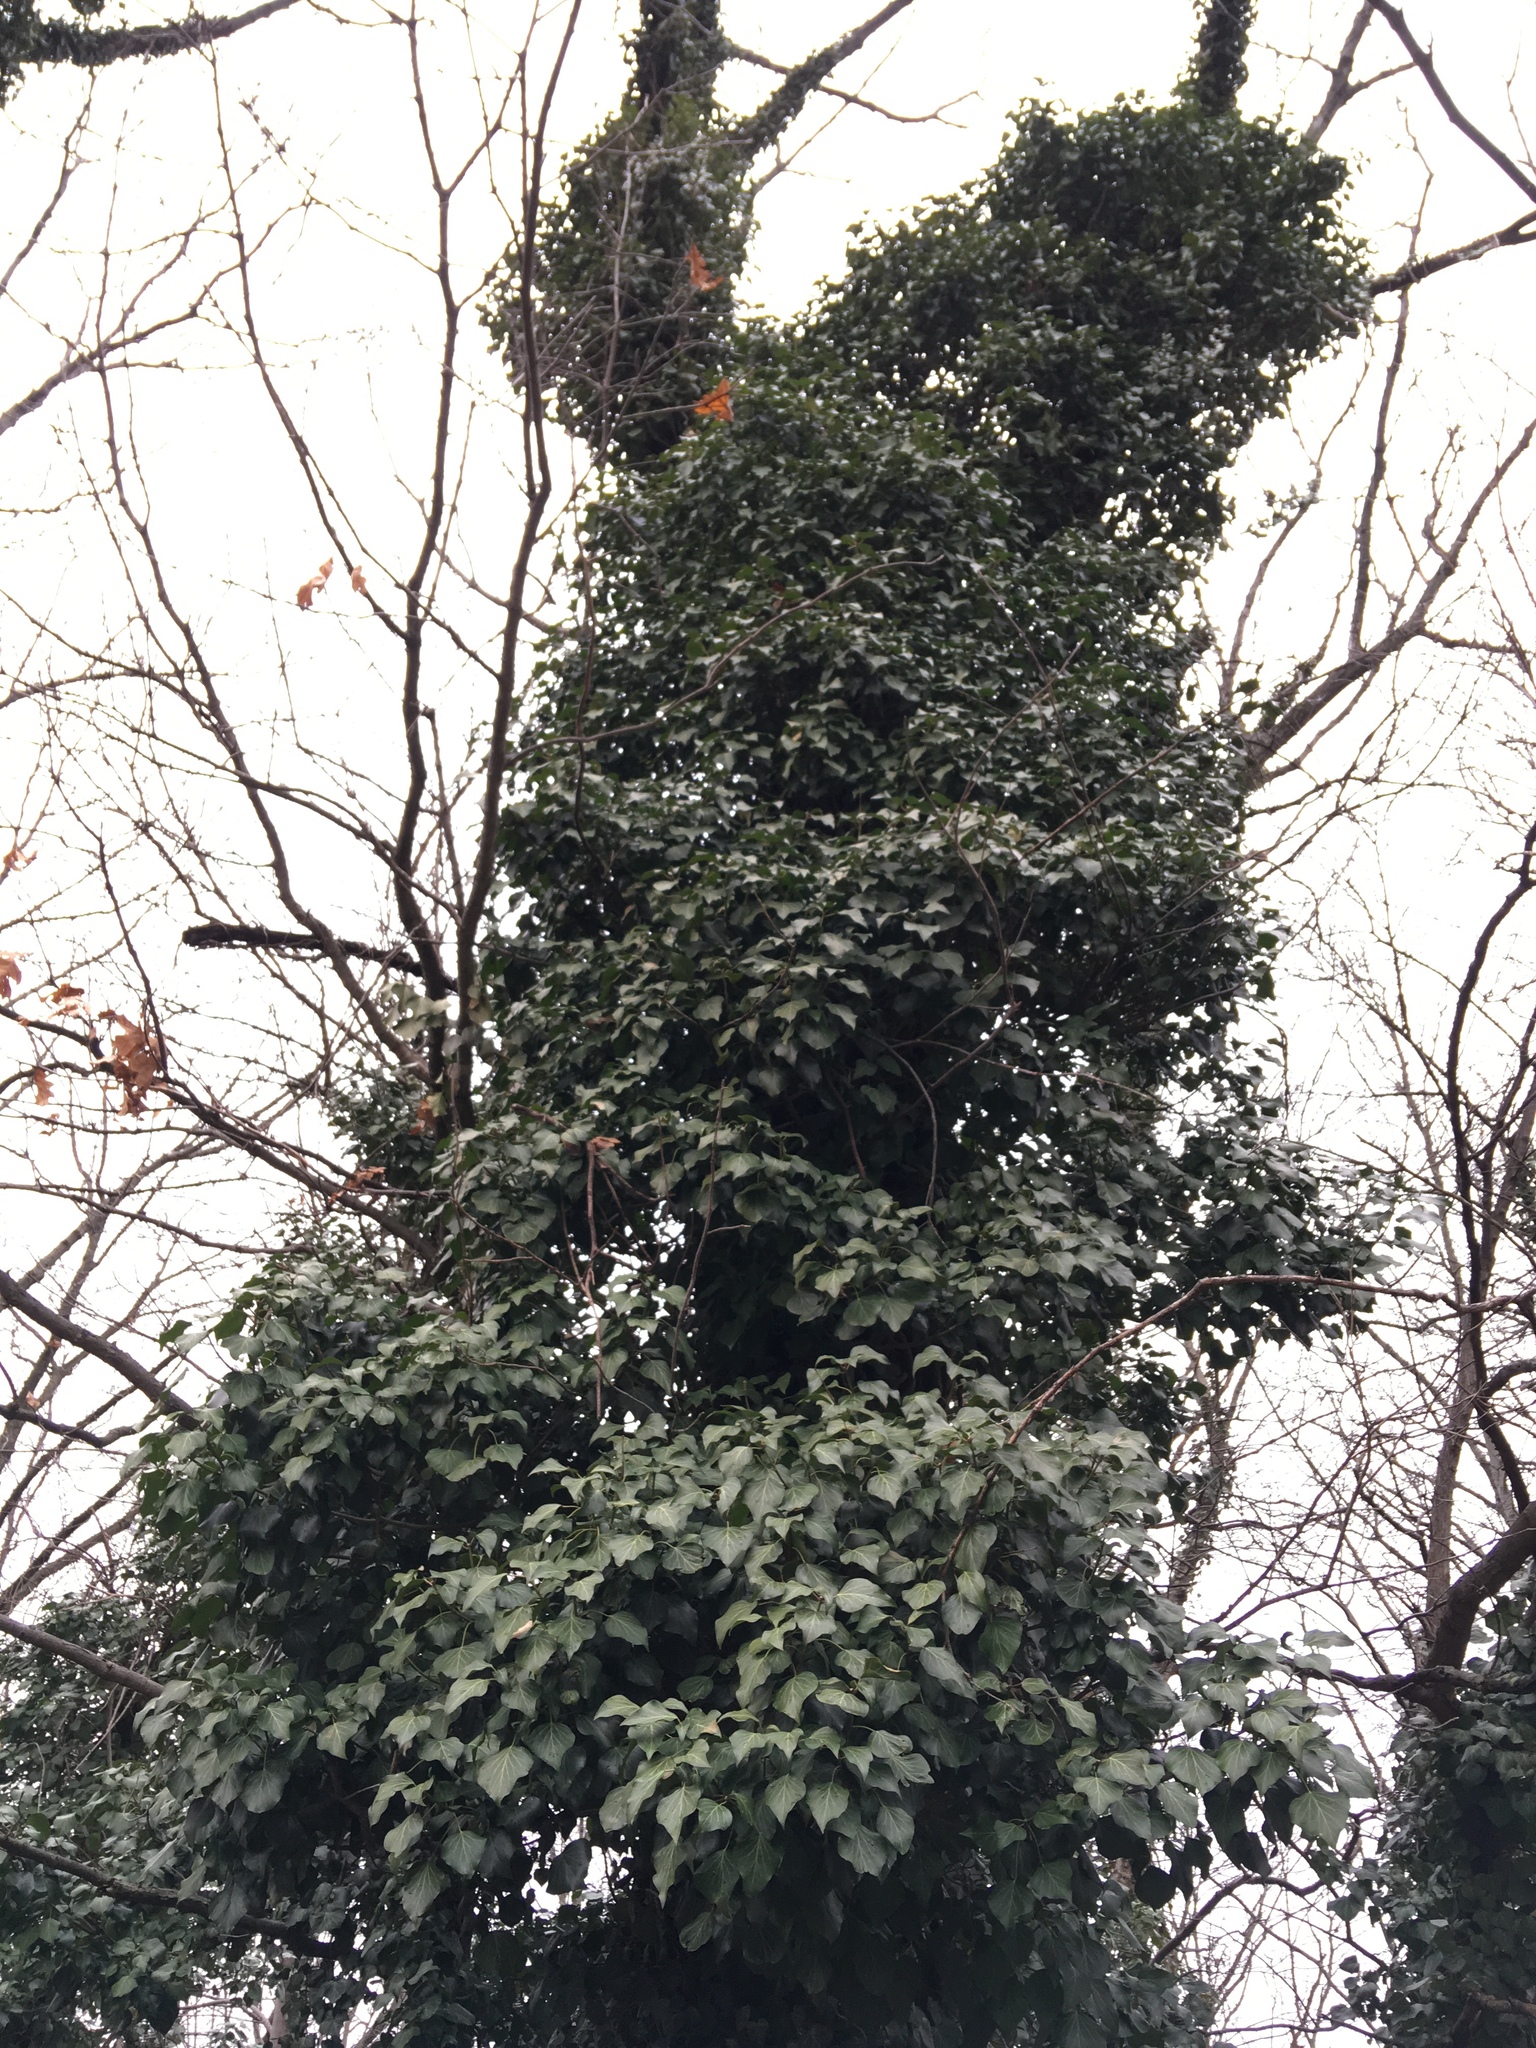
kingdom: Plantae
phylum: Tracheophyta
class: Magnoliopsida
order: Apiales
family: Araliaceae
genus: Hedera
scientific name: Hedera helix
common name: Ivy
